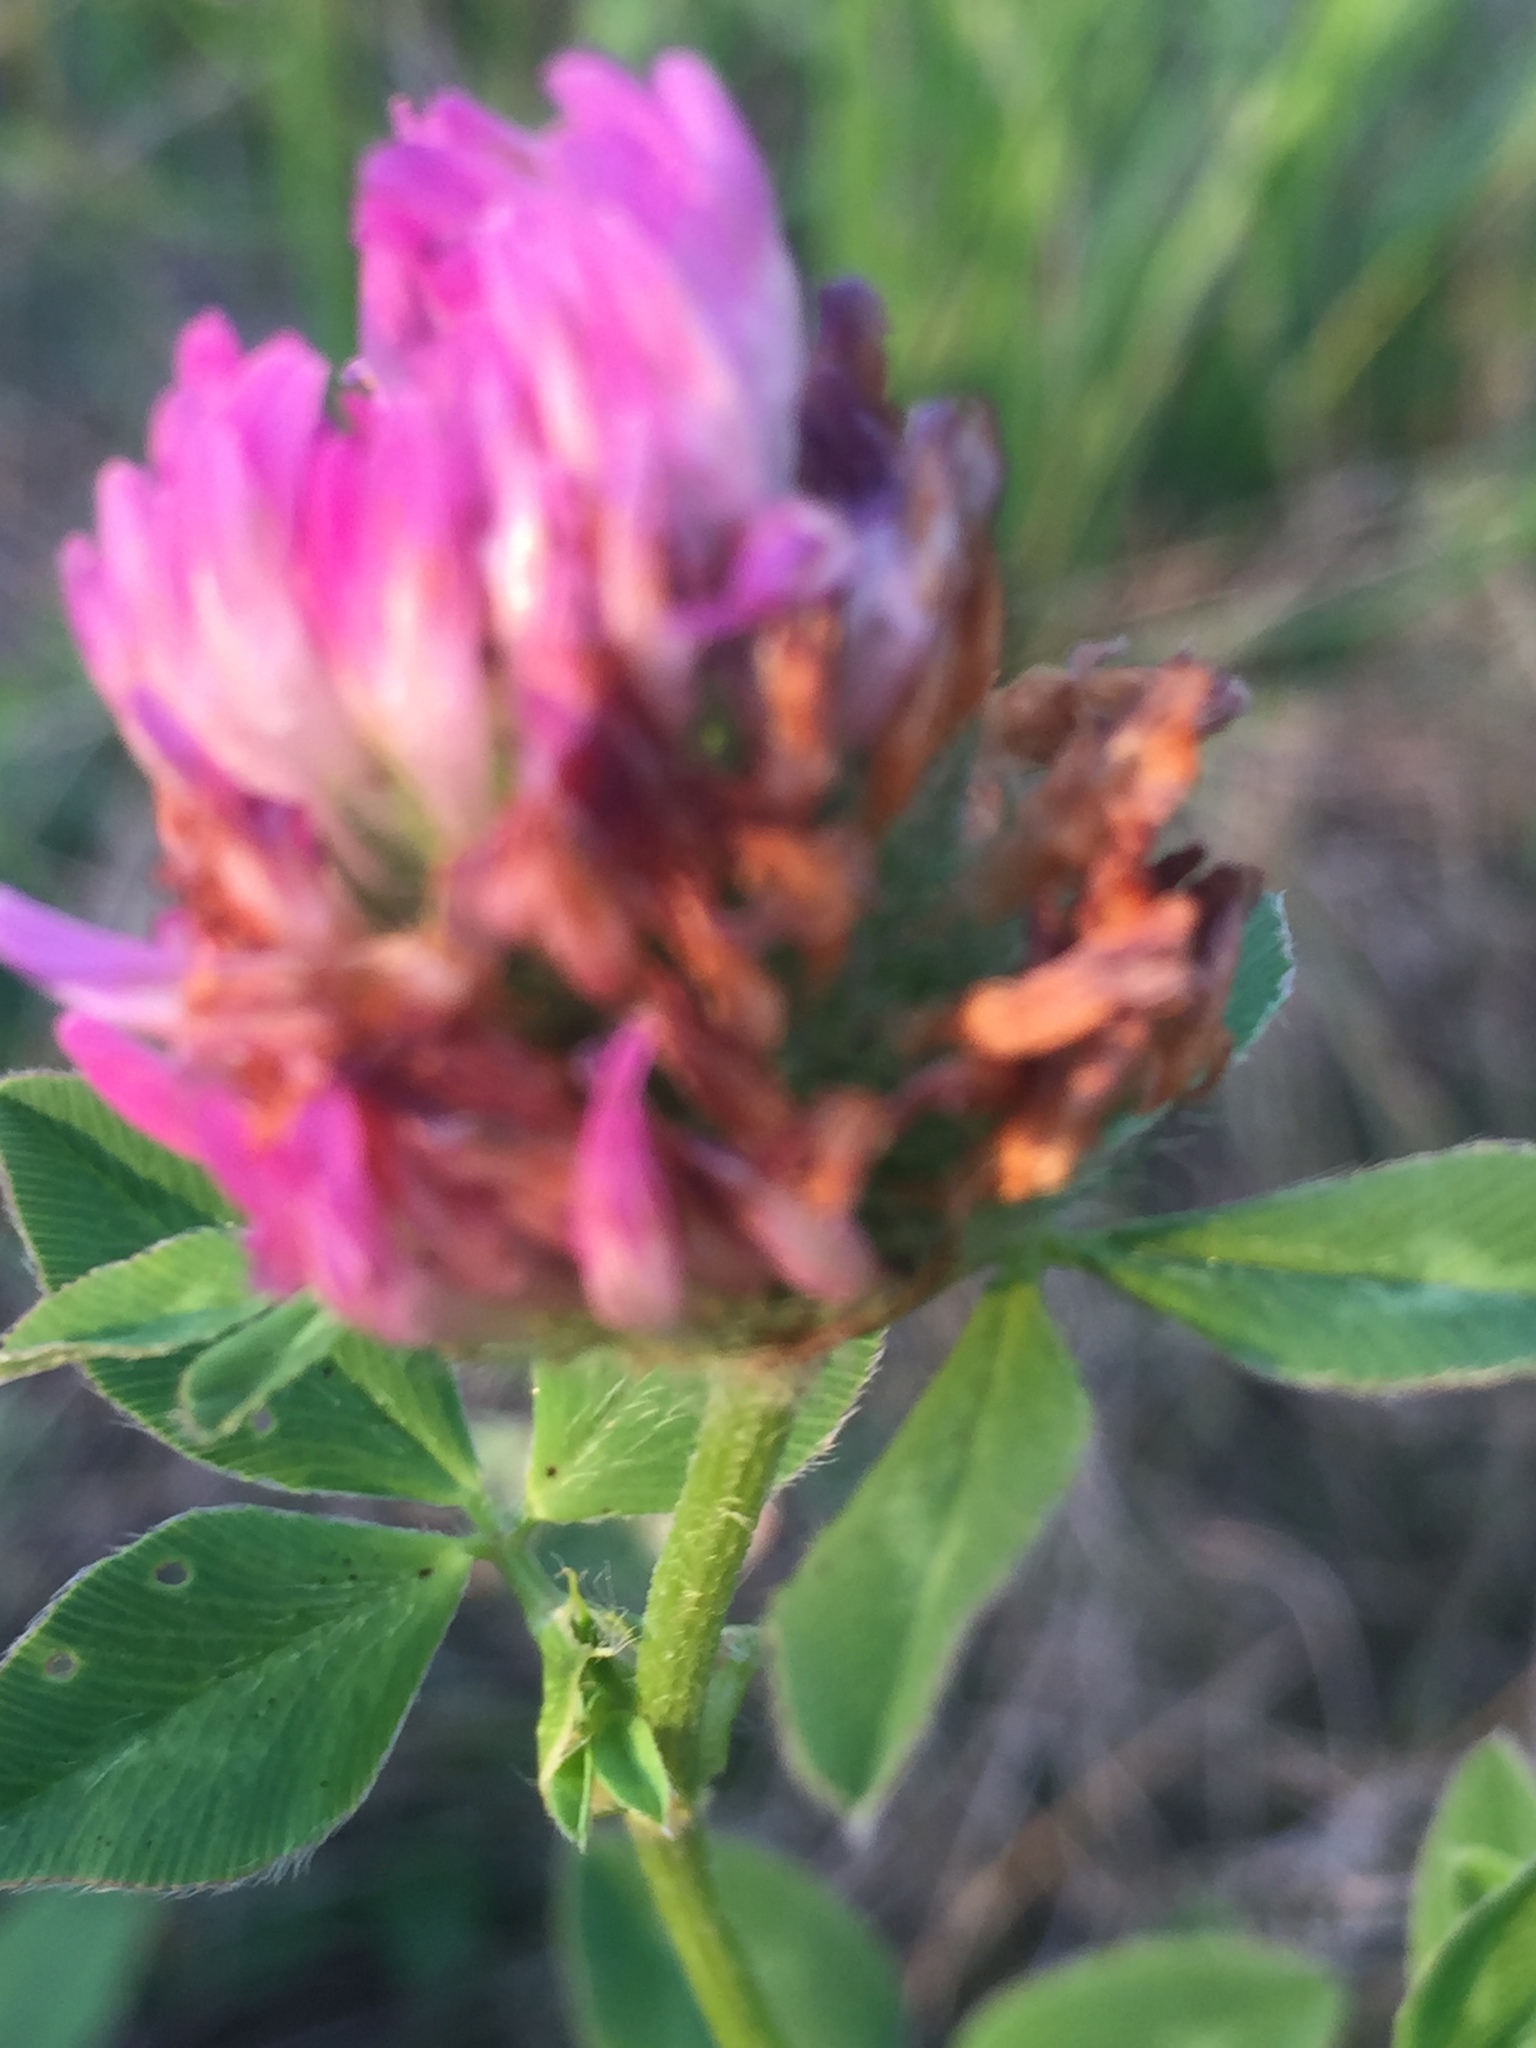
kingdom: Plantae
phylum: Tracheophyta
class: Magnoliopsida
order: Fabales
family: Fabaceae
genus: Trifolium
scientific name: Trifolium pratense
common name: Red clover
